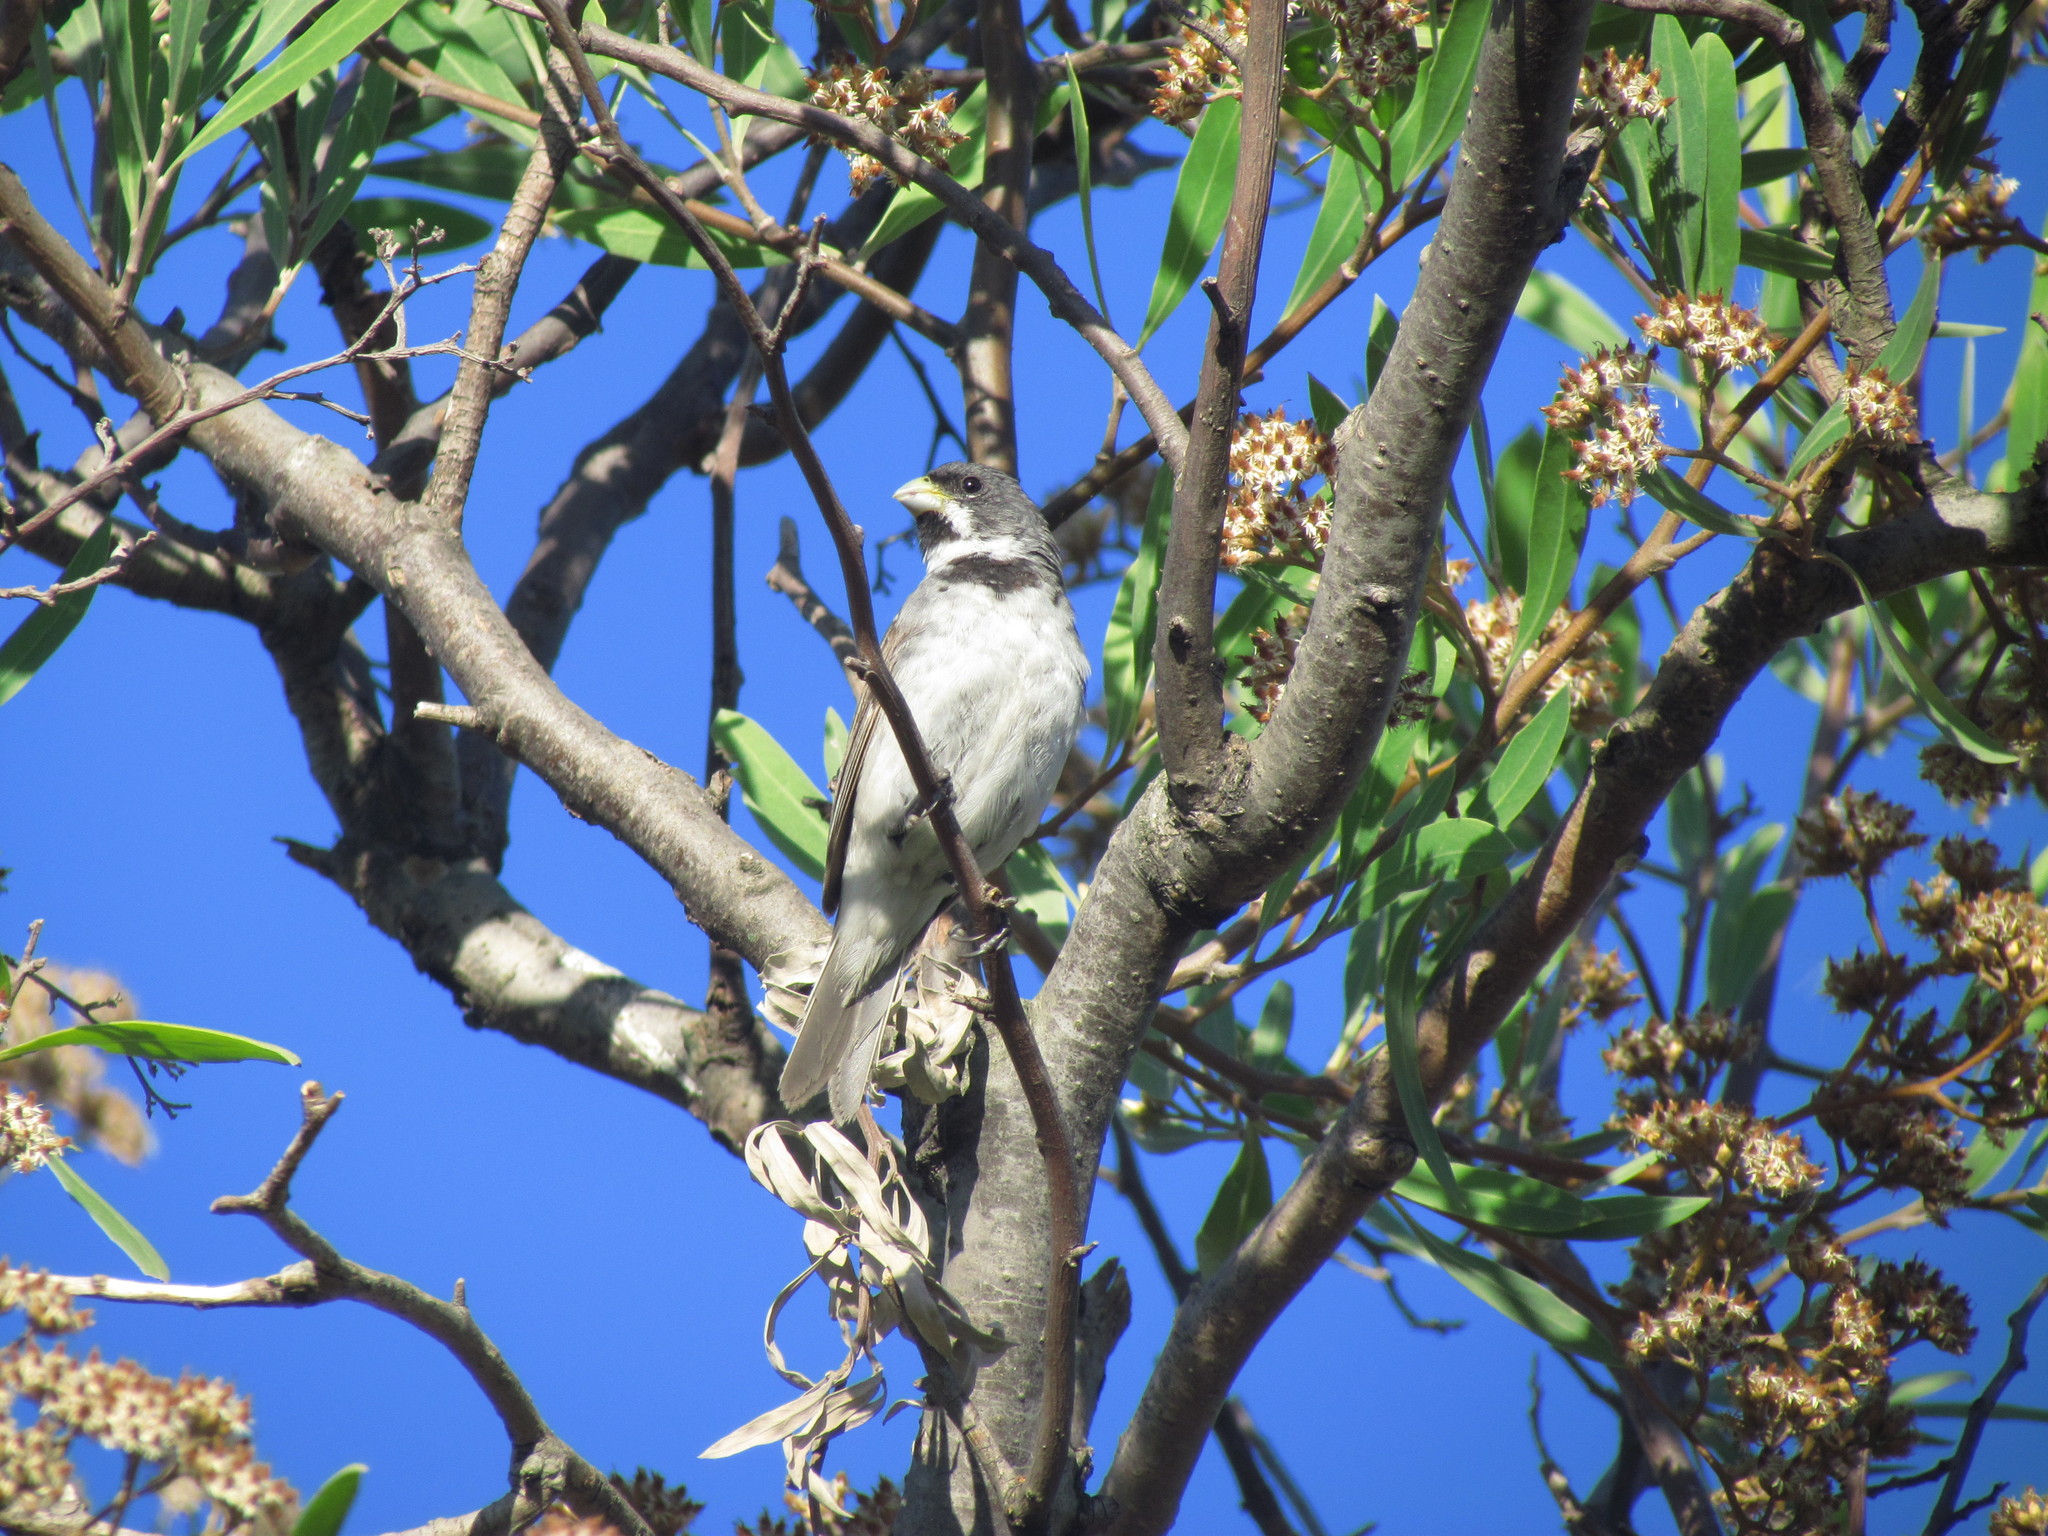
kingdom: Animalia
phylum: Chordata
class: Aves
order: Passeriformes
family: Thraupidae
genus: Sporophila
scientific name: Sporophila caerulescens
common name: Double-collared seedeater
